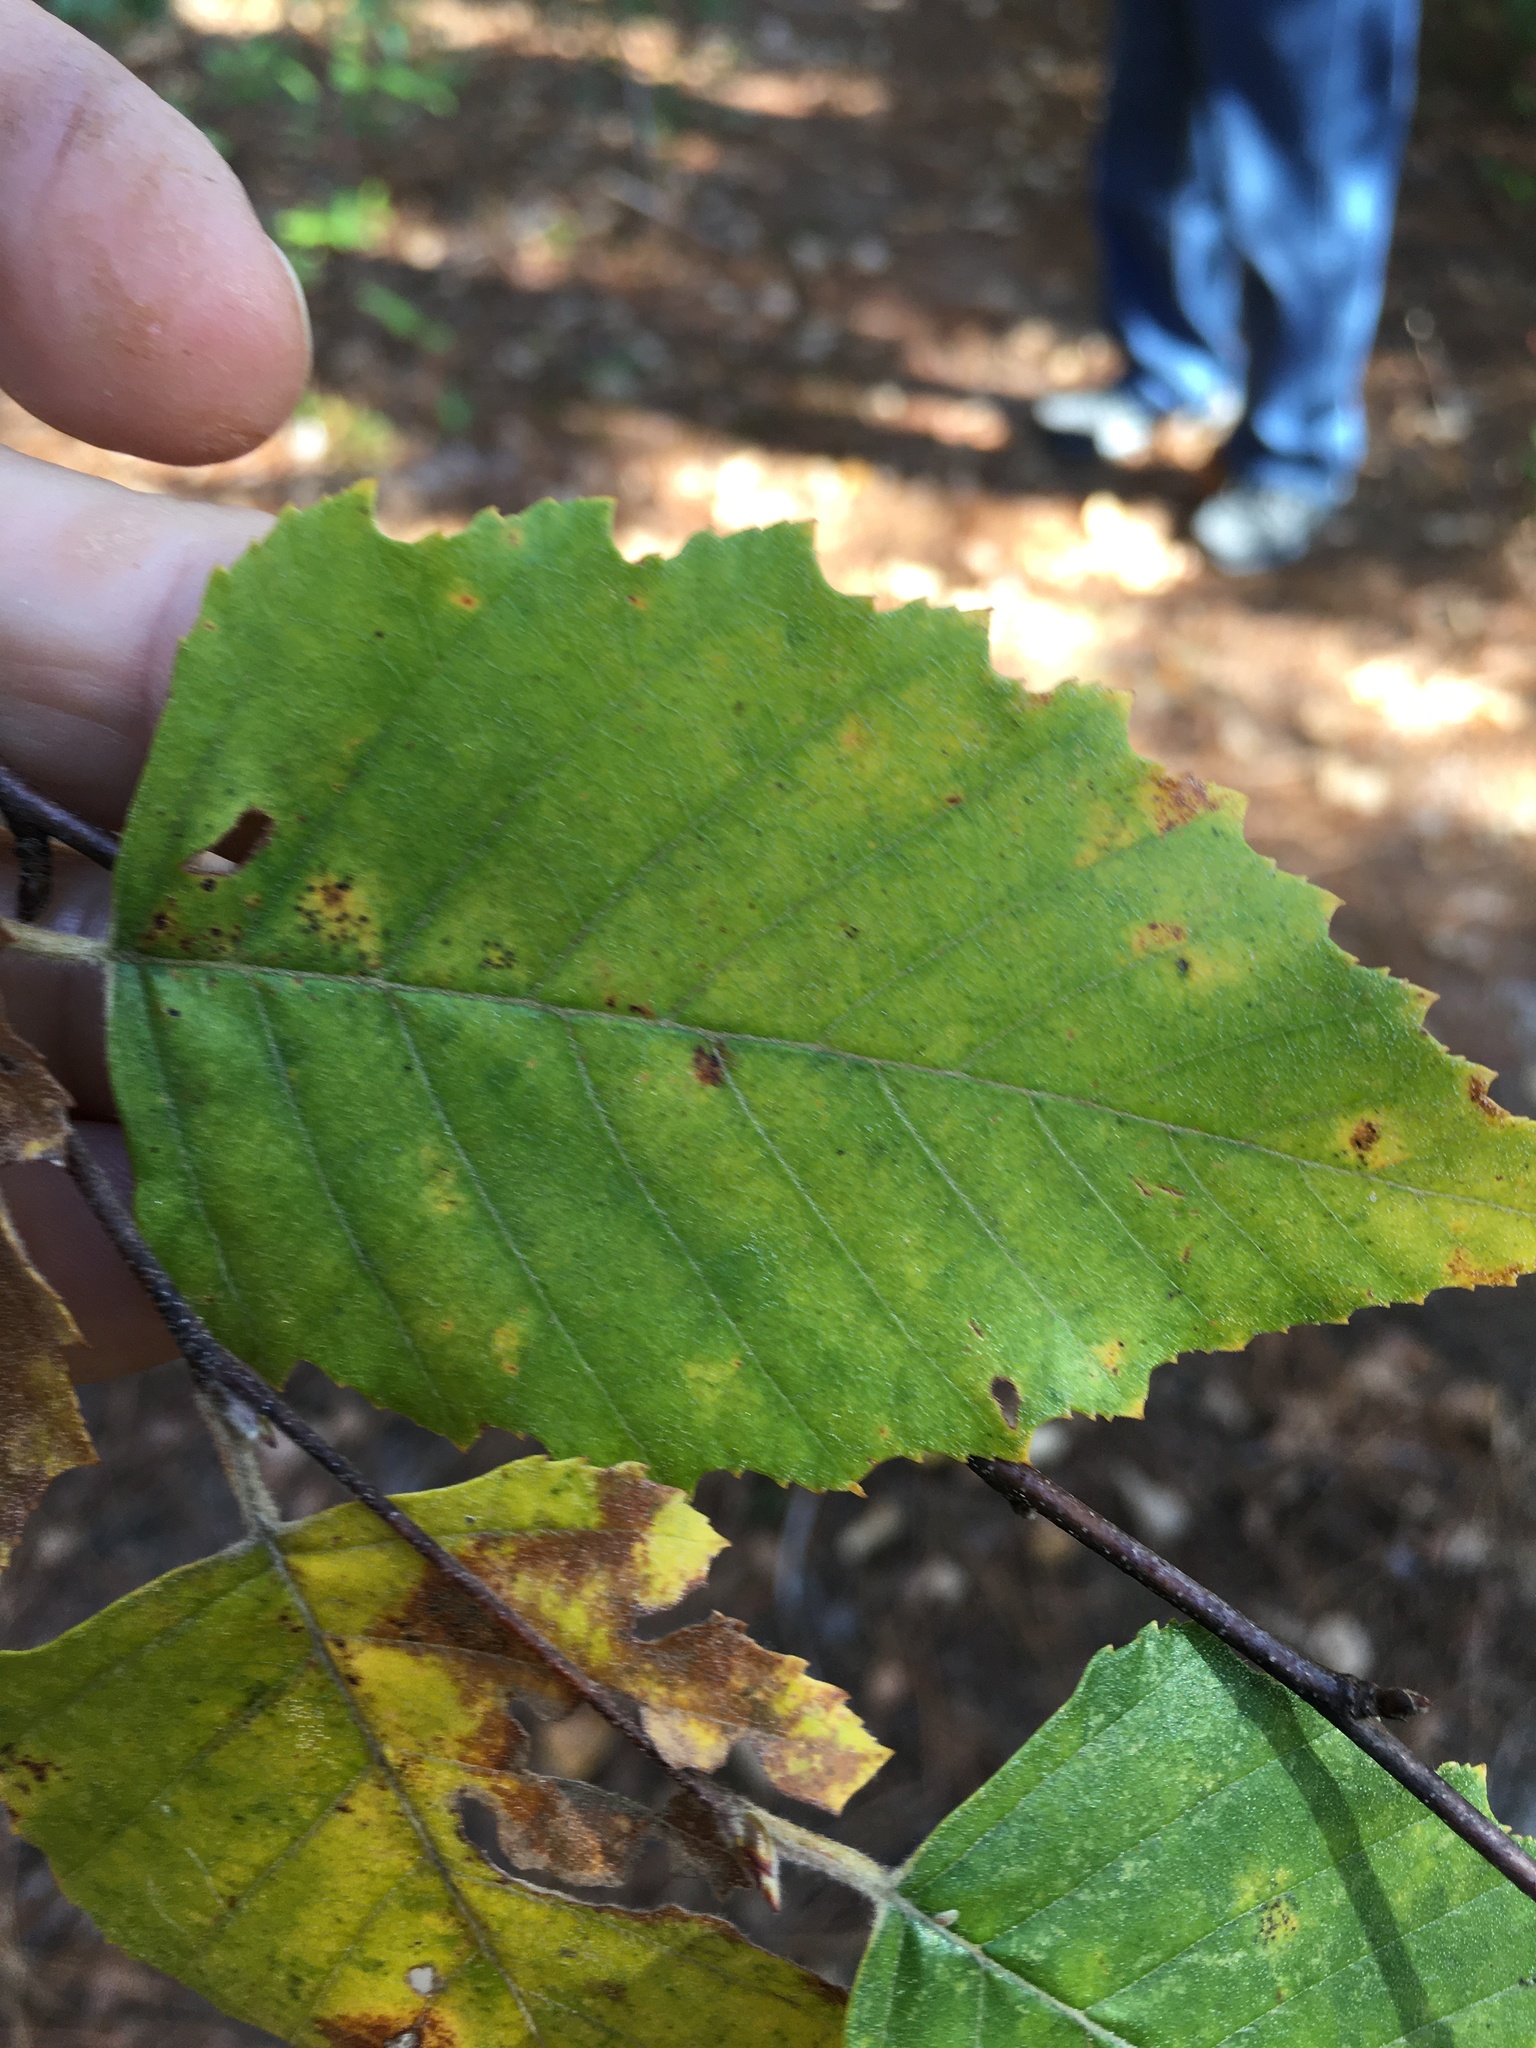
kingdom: Plantae
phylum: Tracheophyta
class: Magnoliopsida
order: Fagales
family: Betulaceae
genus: Betula
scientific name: Betula nigra
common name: Black birch
